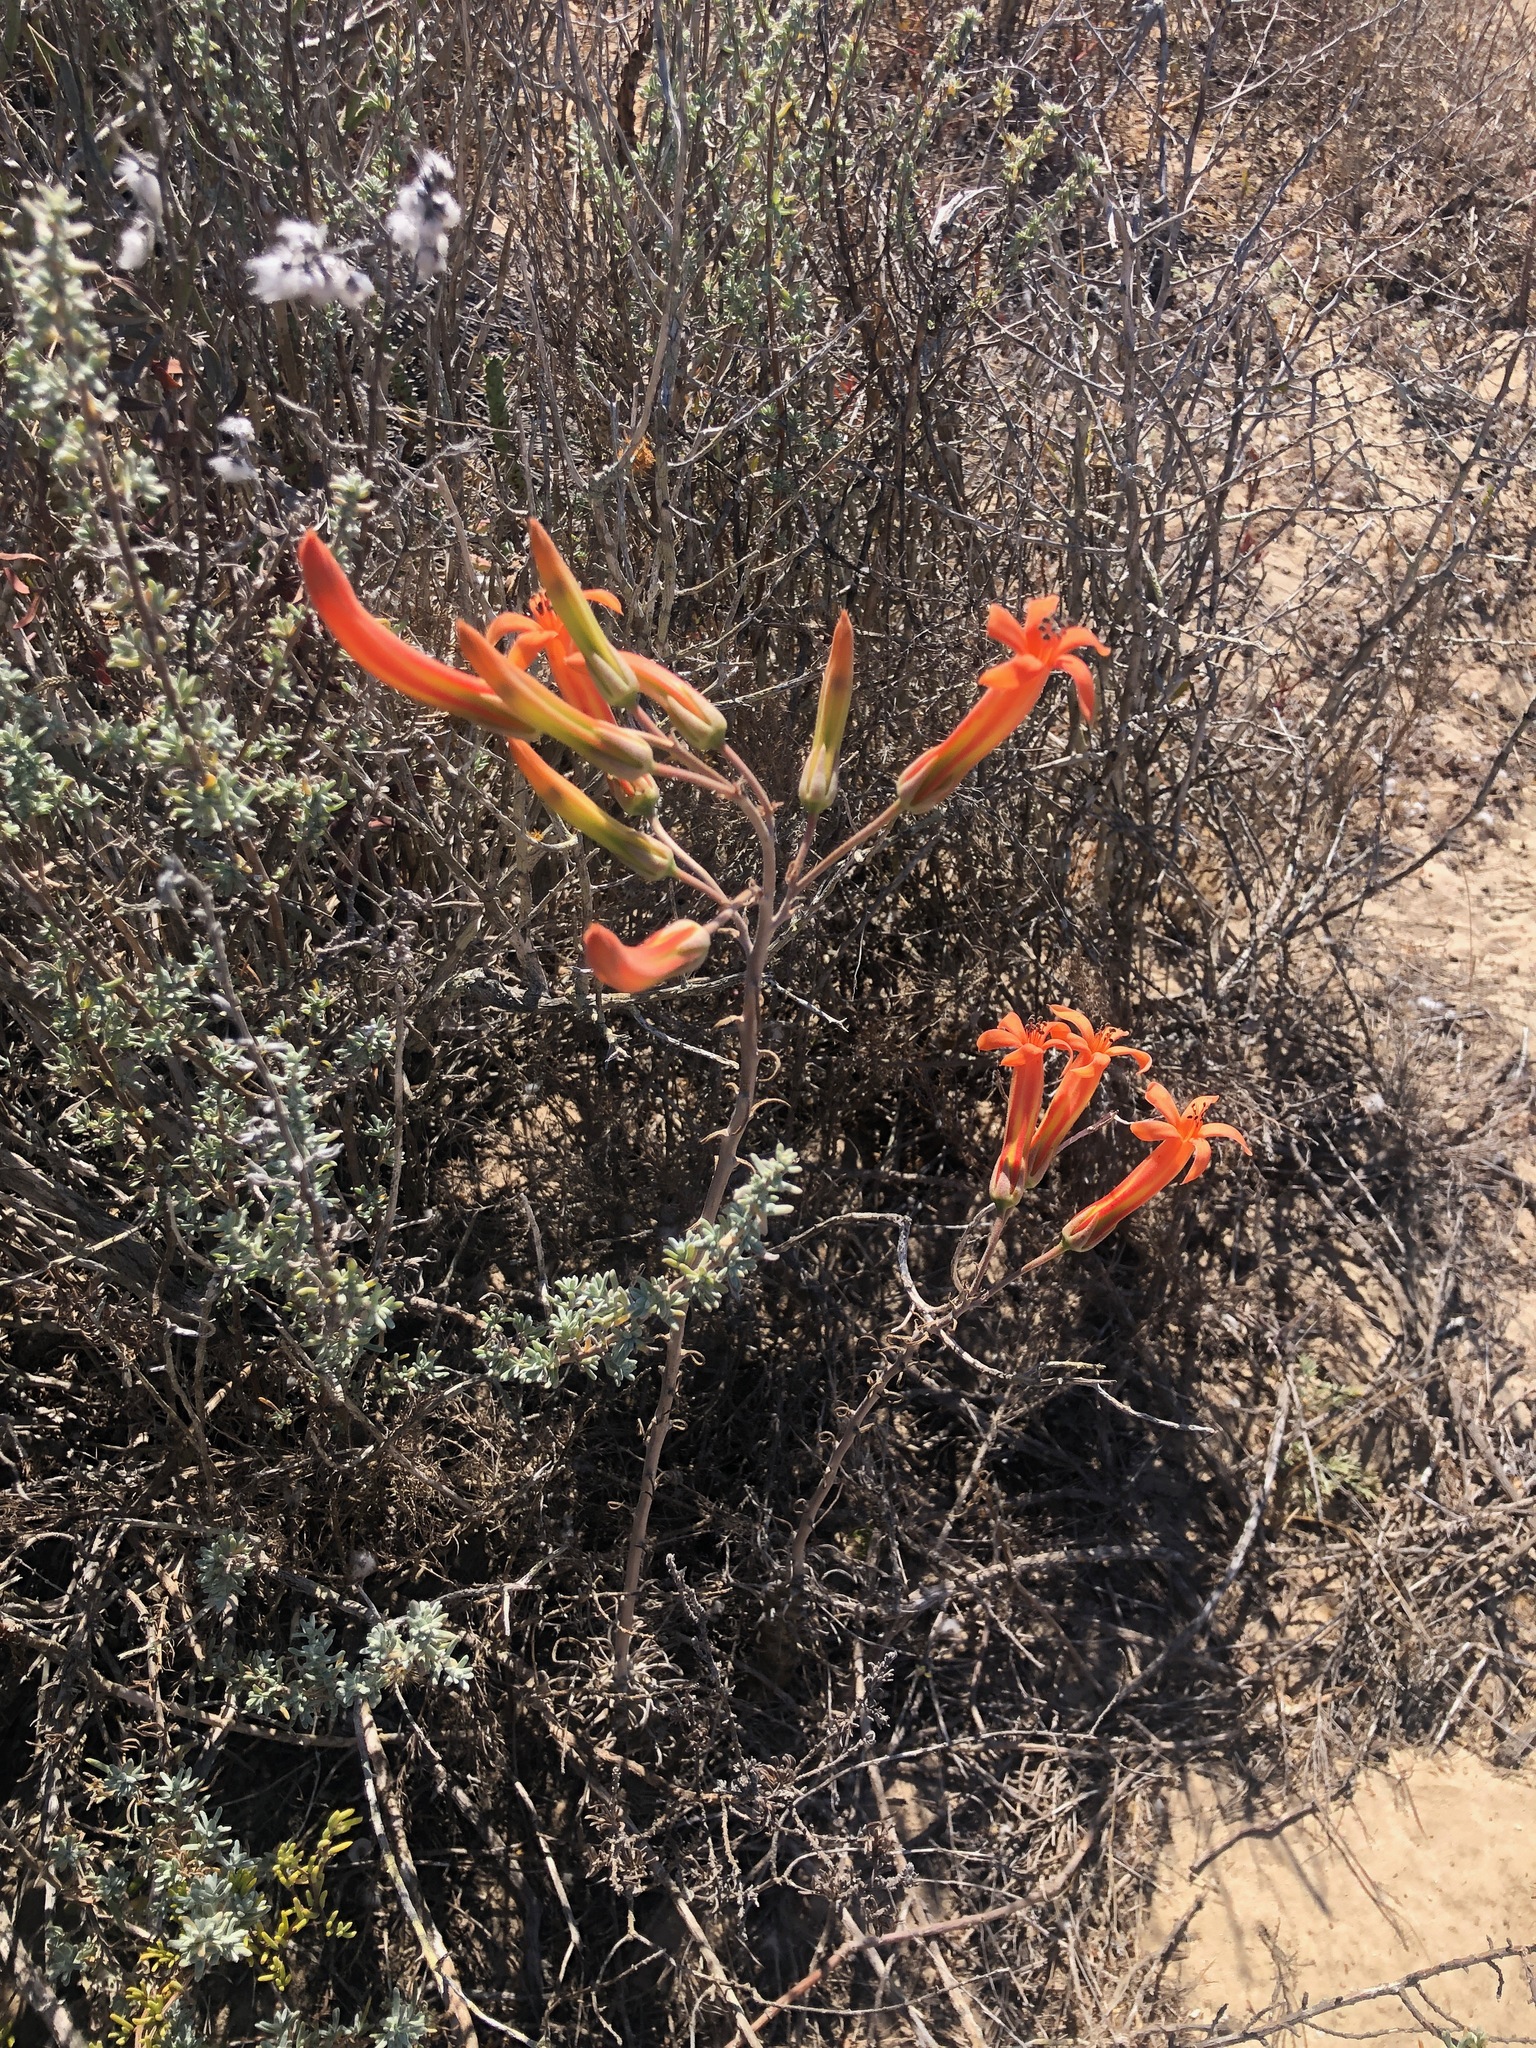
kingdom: Plantae
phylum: Tracheophyta
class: Magnoliopsida
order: Saxifragales
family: Crassulaceae
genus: Tylecodon
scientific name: Tylecodon grandiflorus
